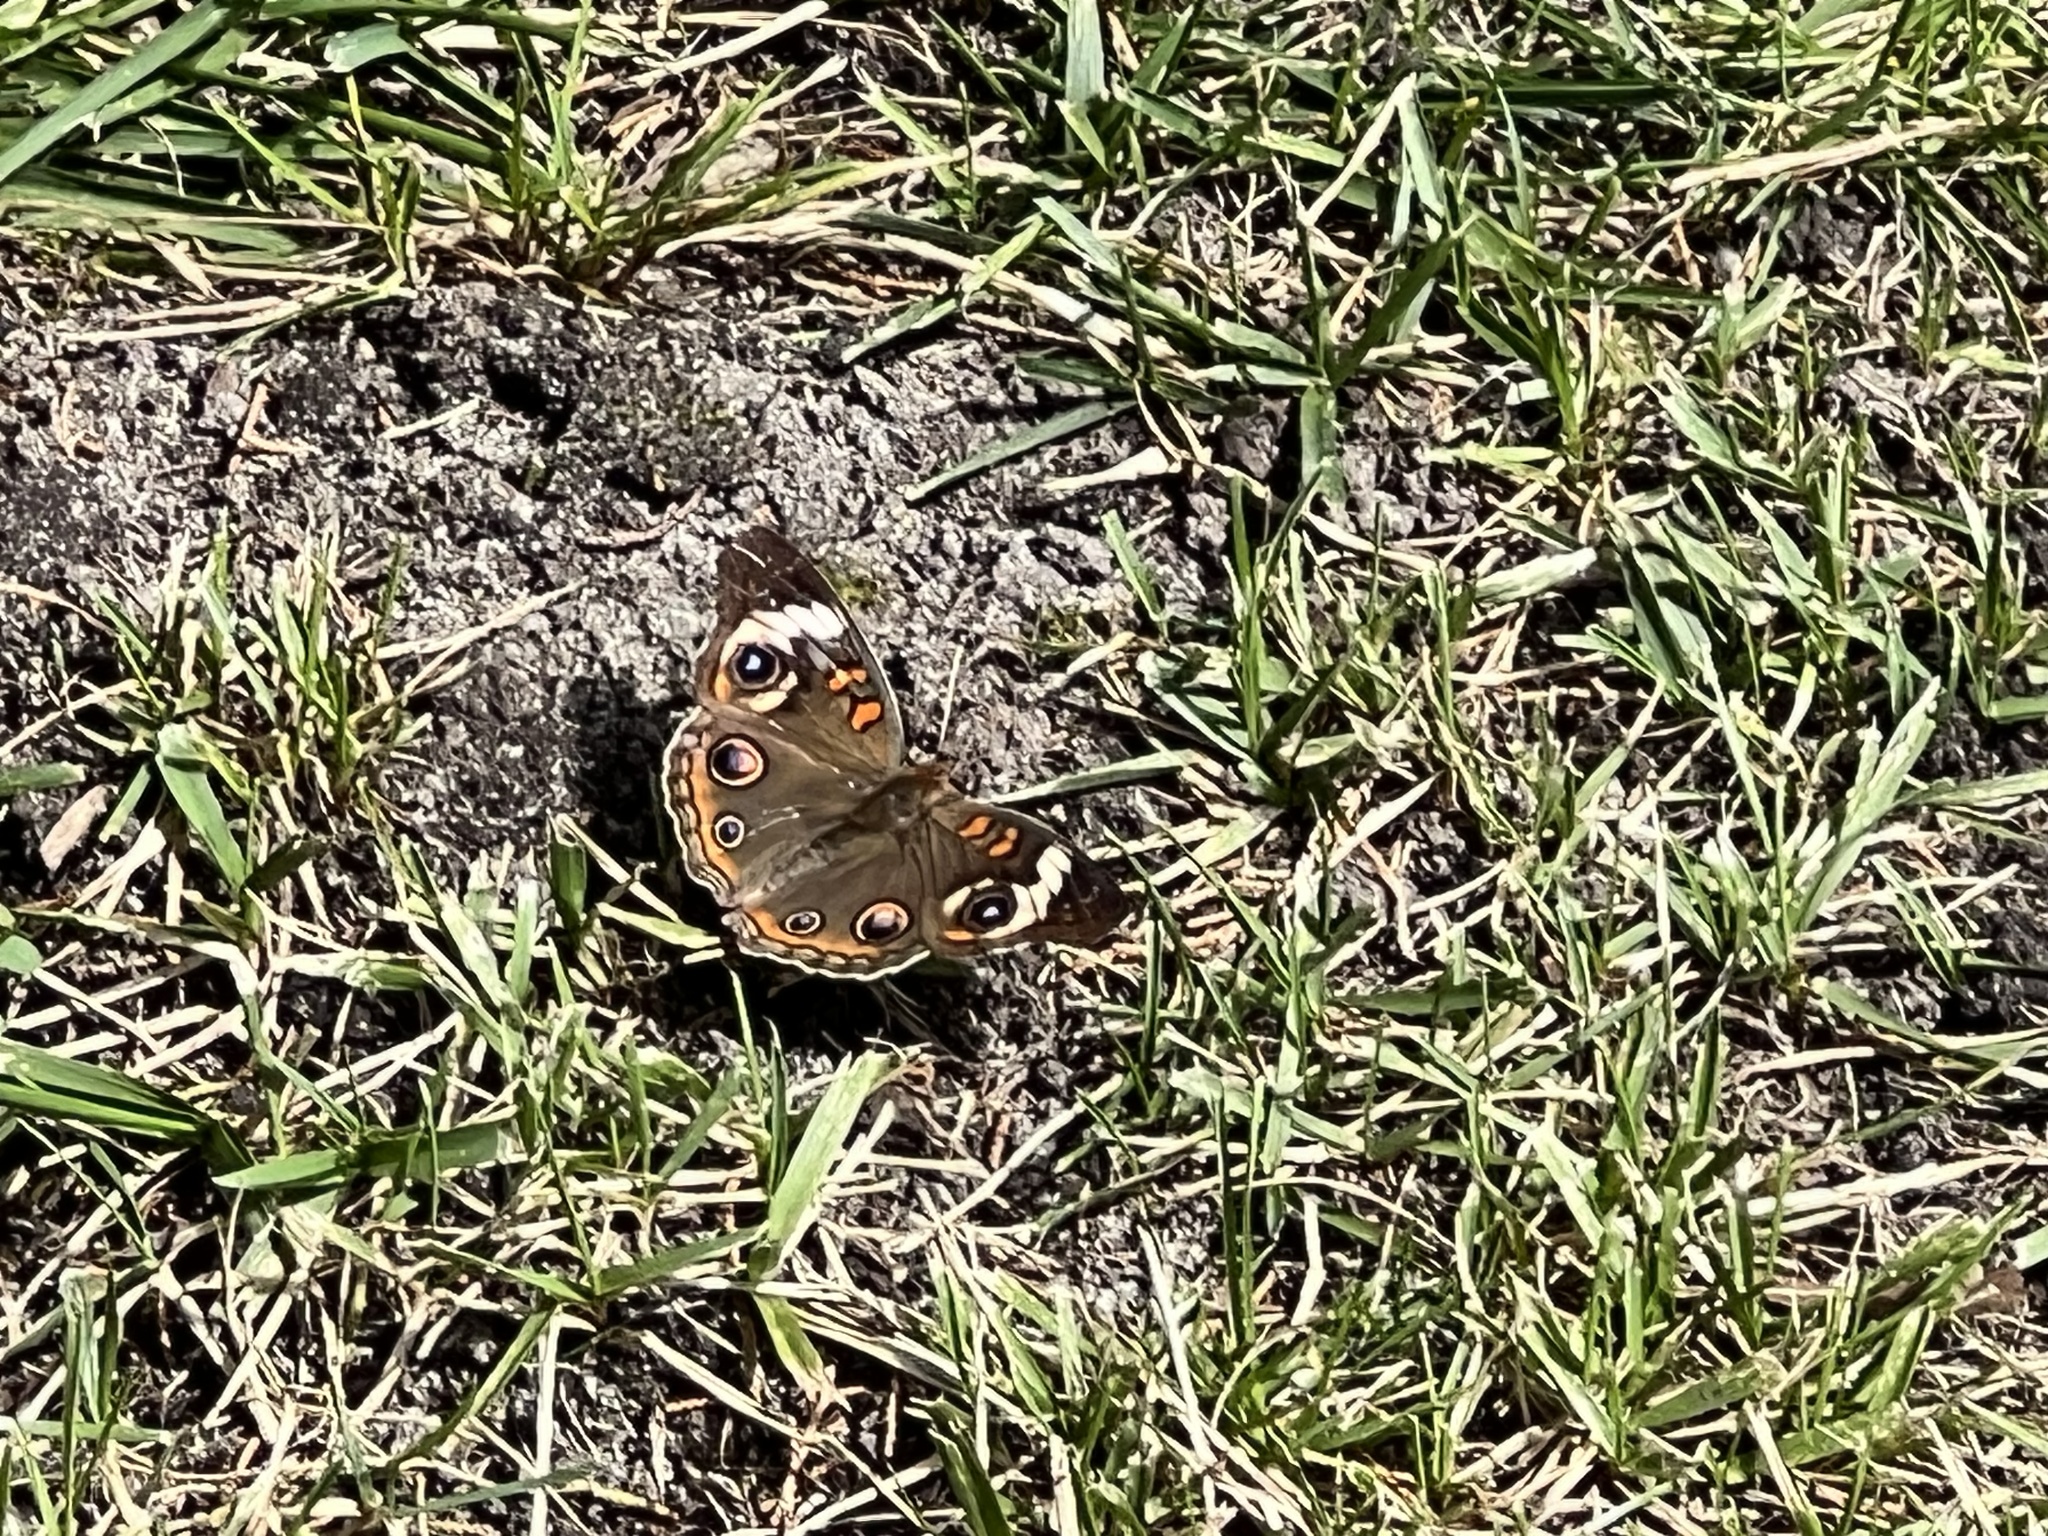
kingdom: Animalia
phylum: Arthropoda
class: Insecta
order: Lepidoptera
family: Nymphalidae
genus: Junonia
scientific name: Junonia coenia
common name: Common buckeye
